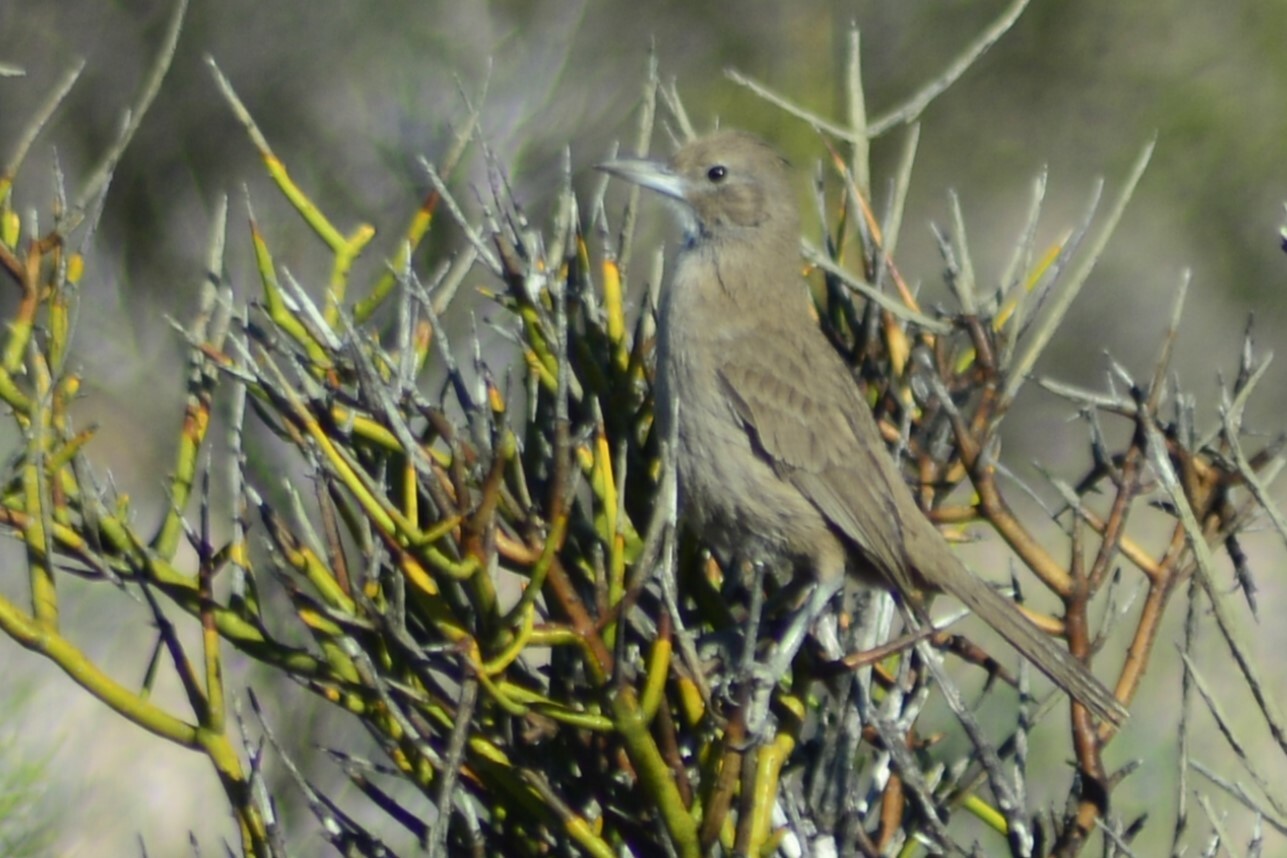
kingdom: Animalia
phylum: Chordata
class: Aves
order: Passeriformes
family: Furnariidae
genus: Pseudoseisura
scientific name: Pseudoseisura gutturalis
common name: White-throated cacholote
